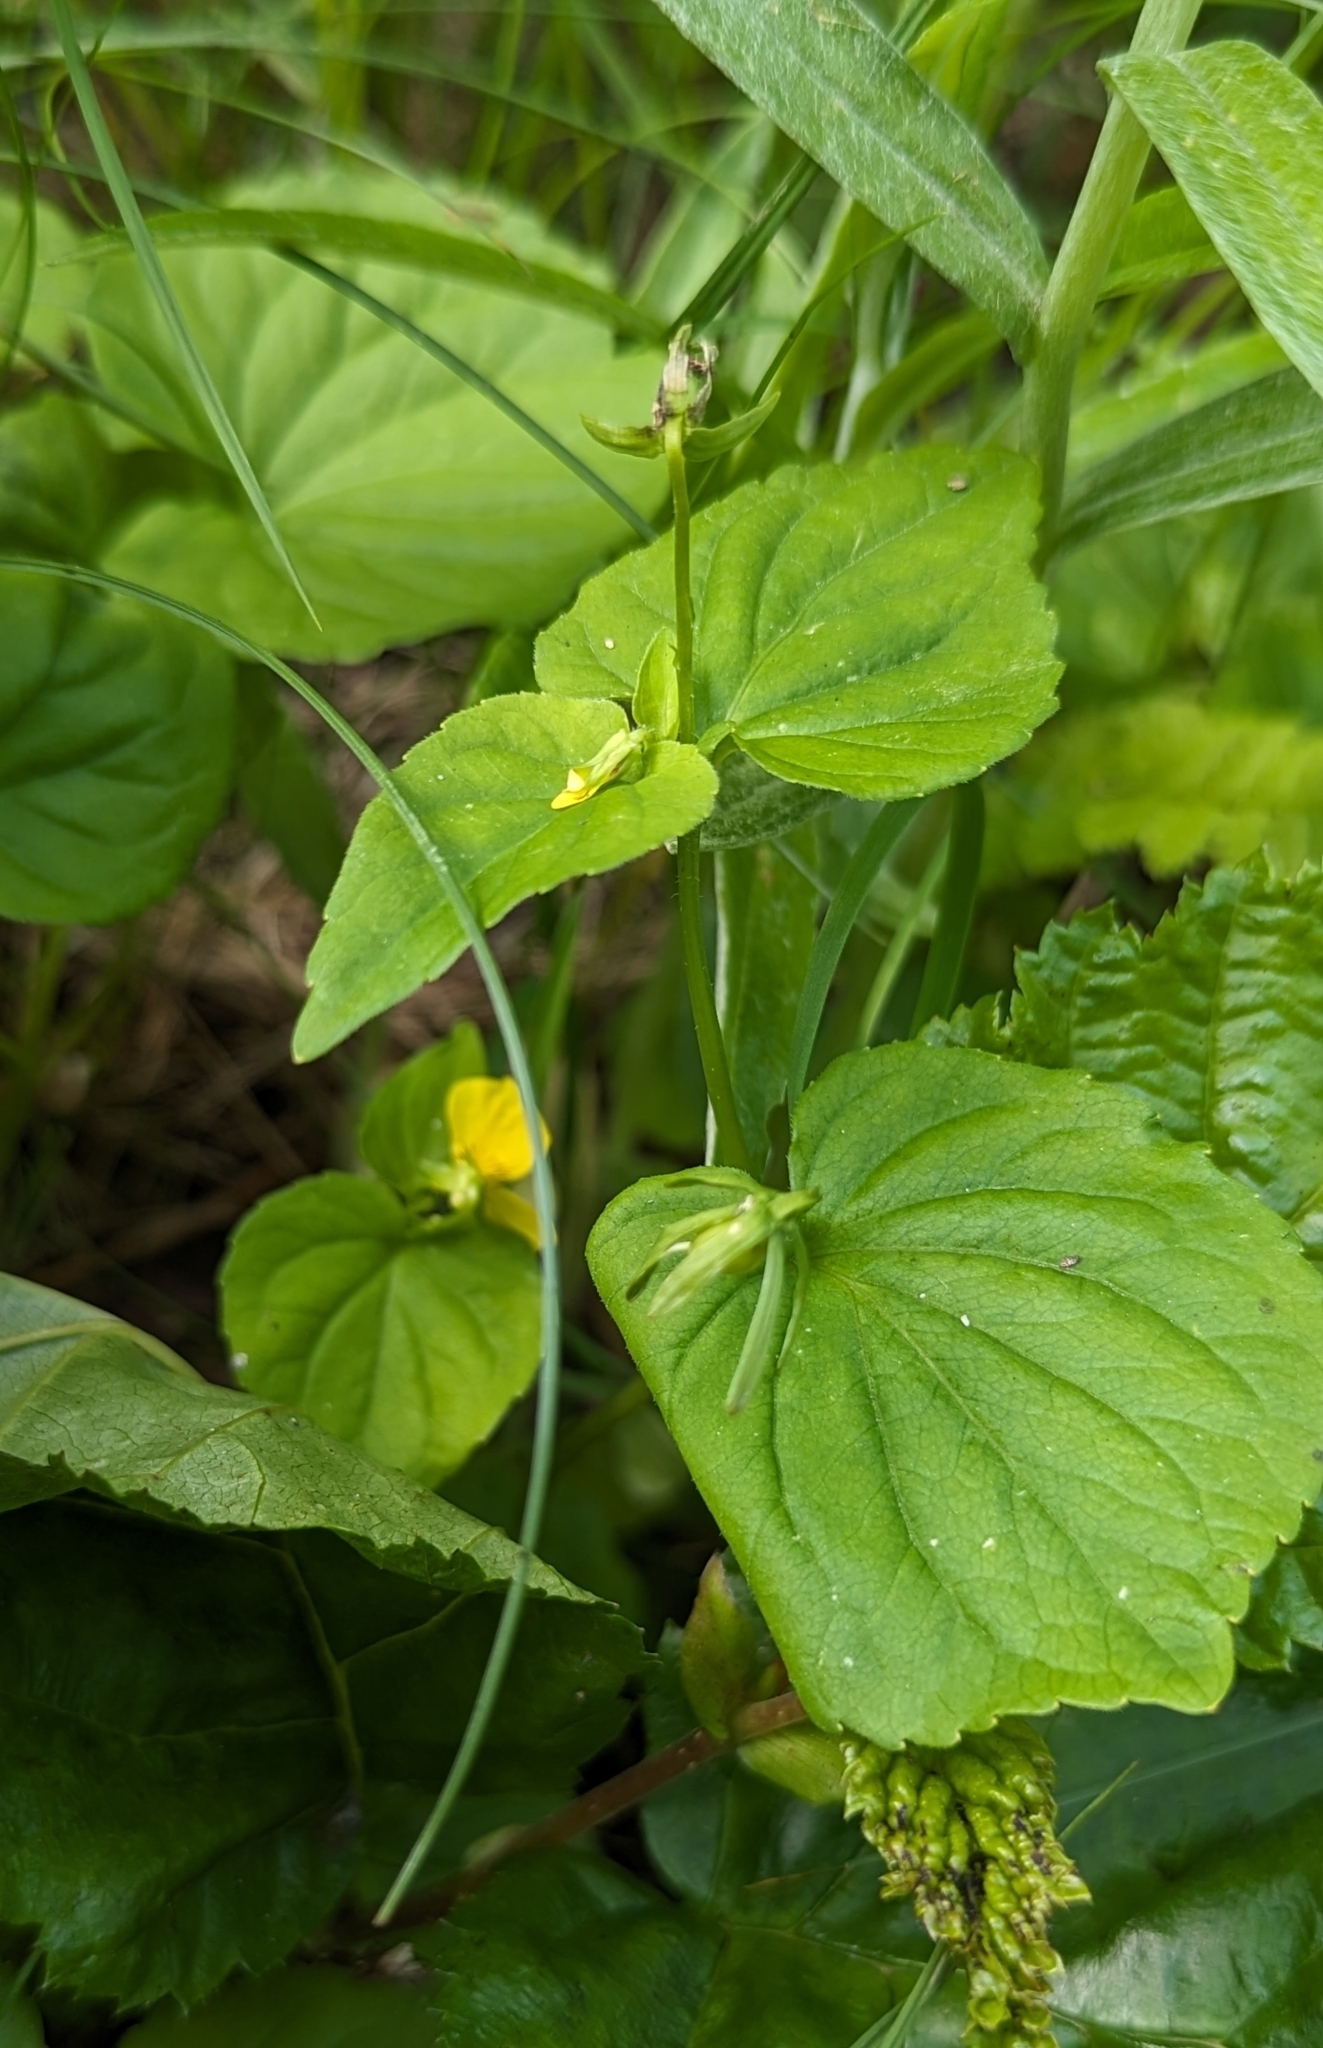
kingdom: Plantae
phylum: Tracheophyta
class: Magnoliopsida
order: Malpighiales
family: Violaceae
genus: Viola
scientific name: Viola glabella
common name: Stream violet
